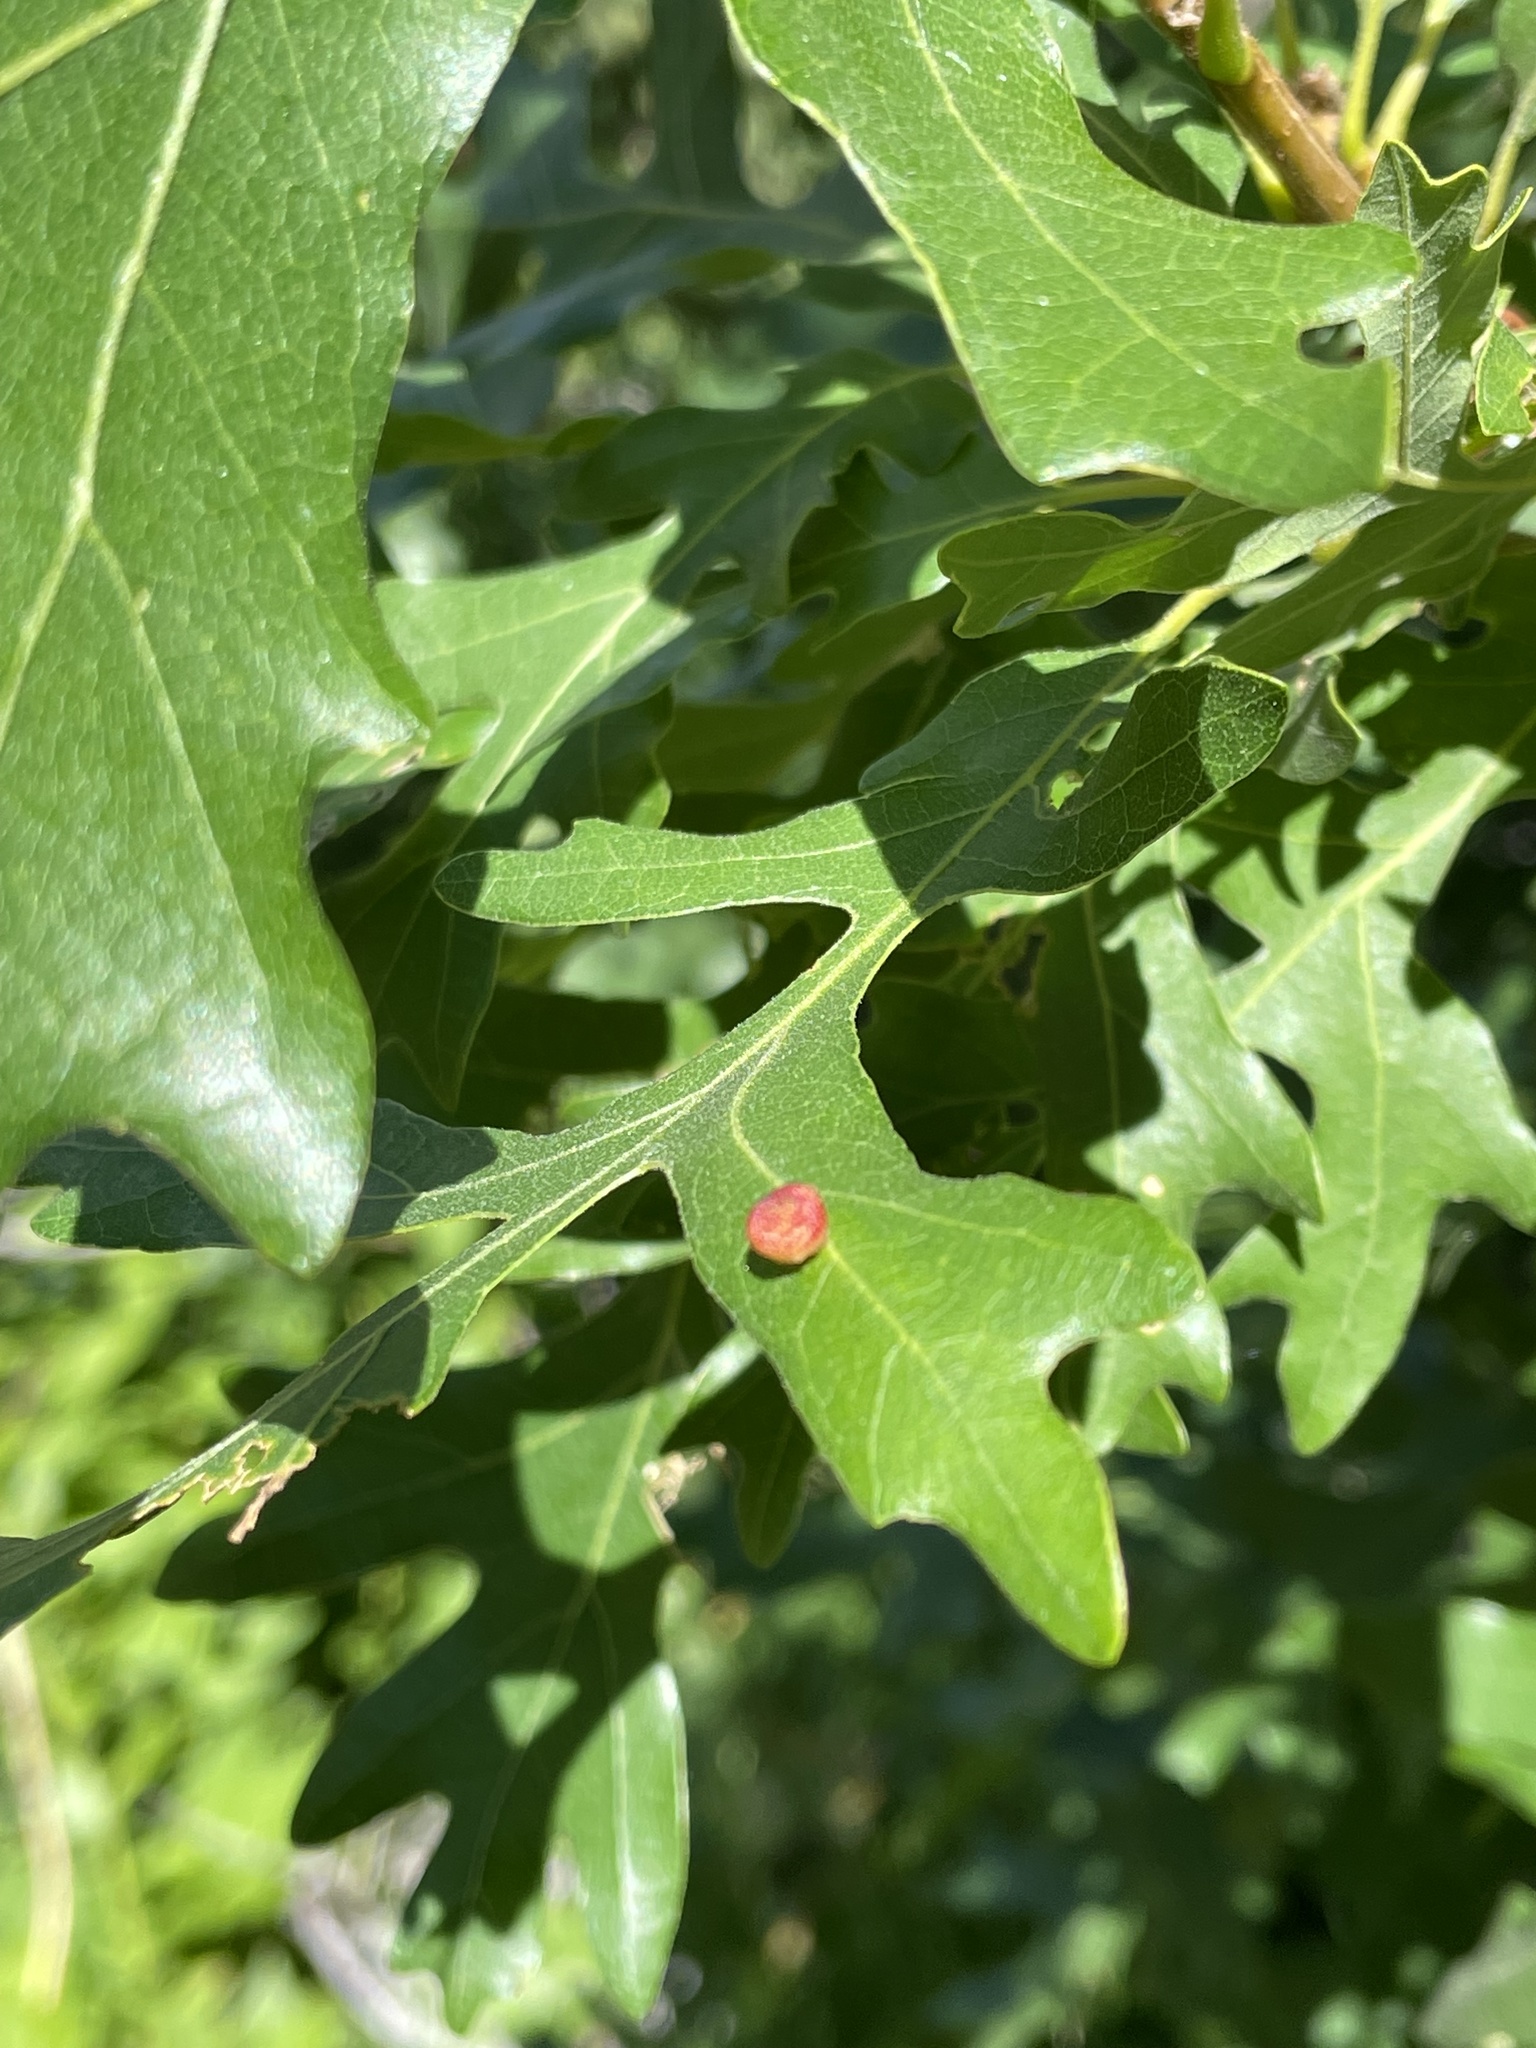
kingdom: Animalia
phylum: Arthropoda
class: Insecta
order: Hymenoptera
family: Cynipidae
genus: Acraspis
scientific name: Acraspis quercushirta
